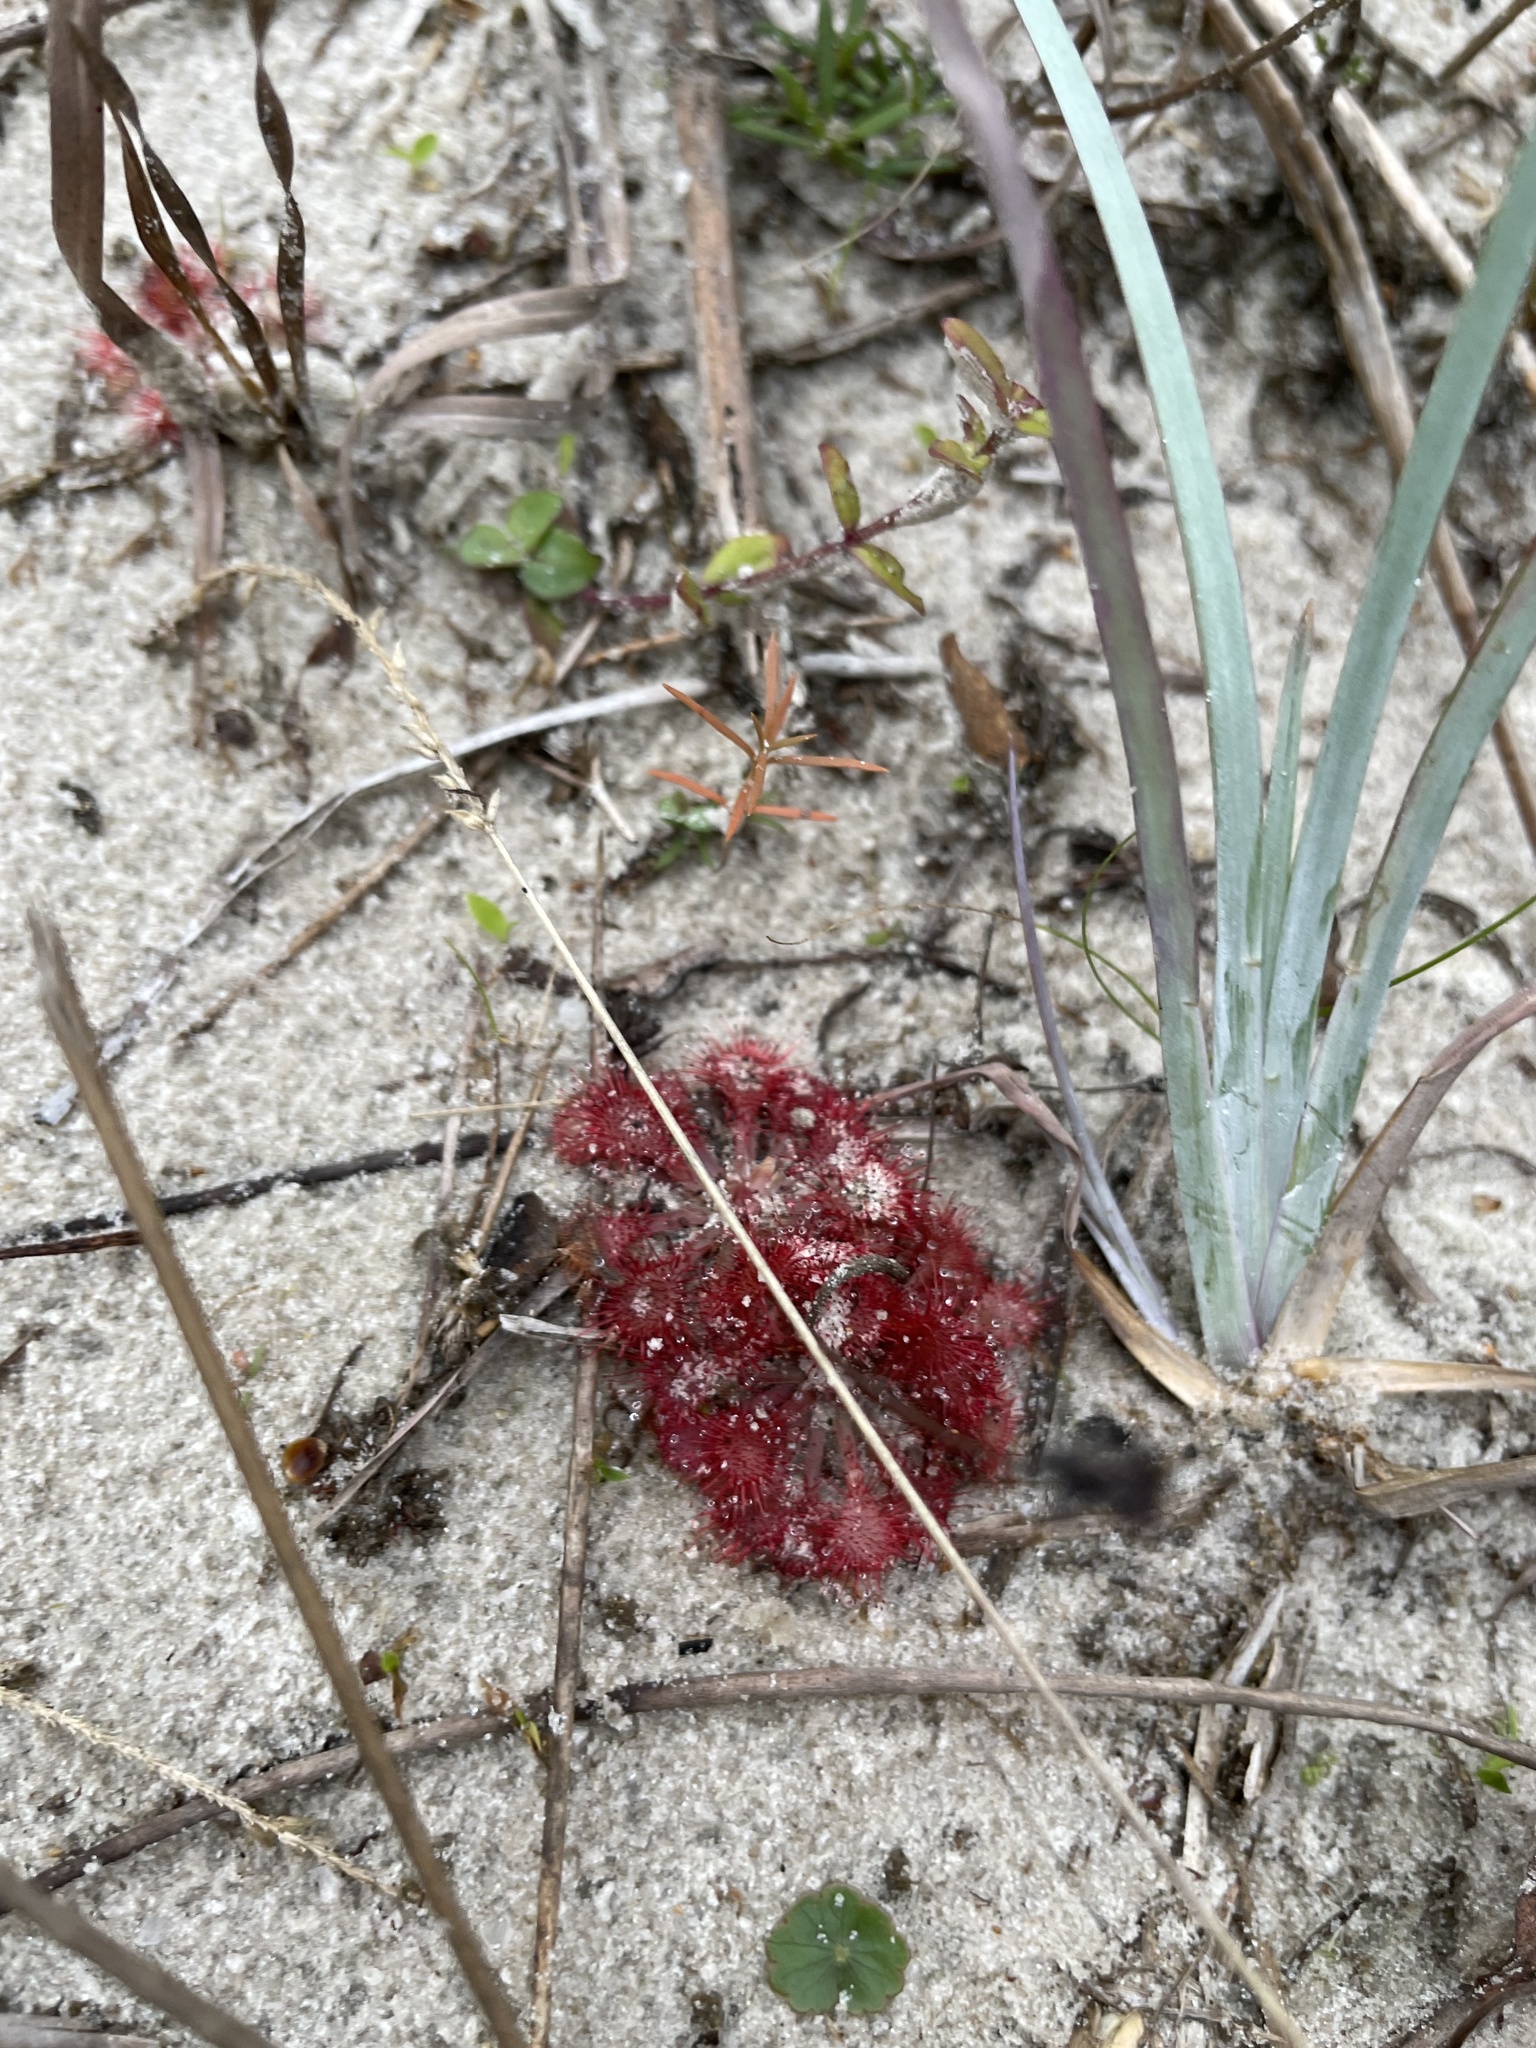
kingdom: Plantae
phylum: Tracheophyta
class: Magnoliopsida
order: Caryophyllales
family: Droseraceae
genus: Drosera
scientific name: Drosera capillaris
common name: Pink sundew
